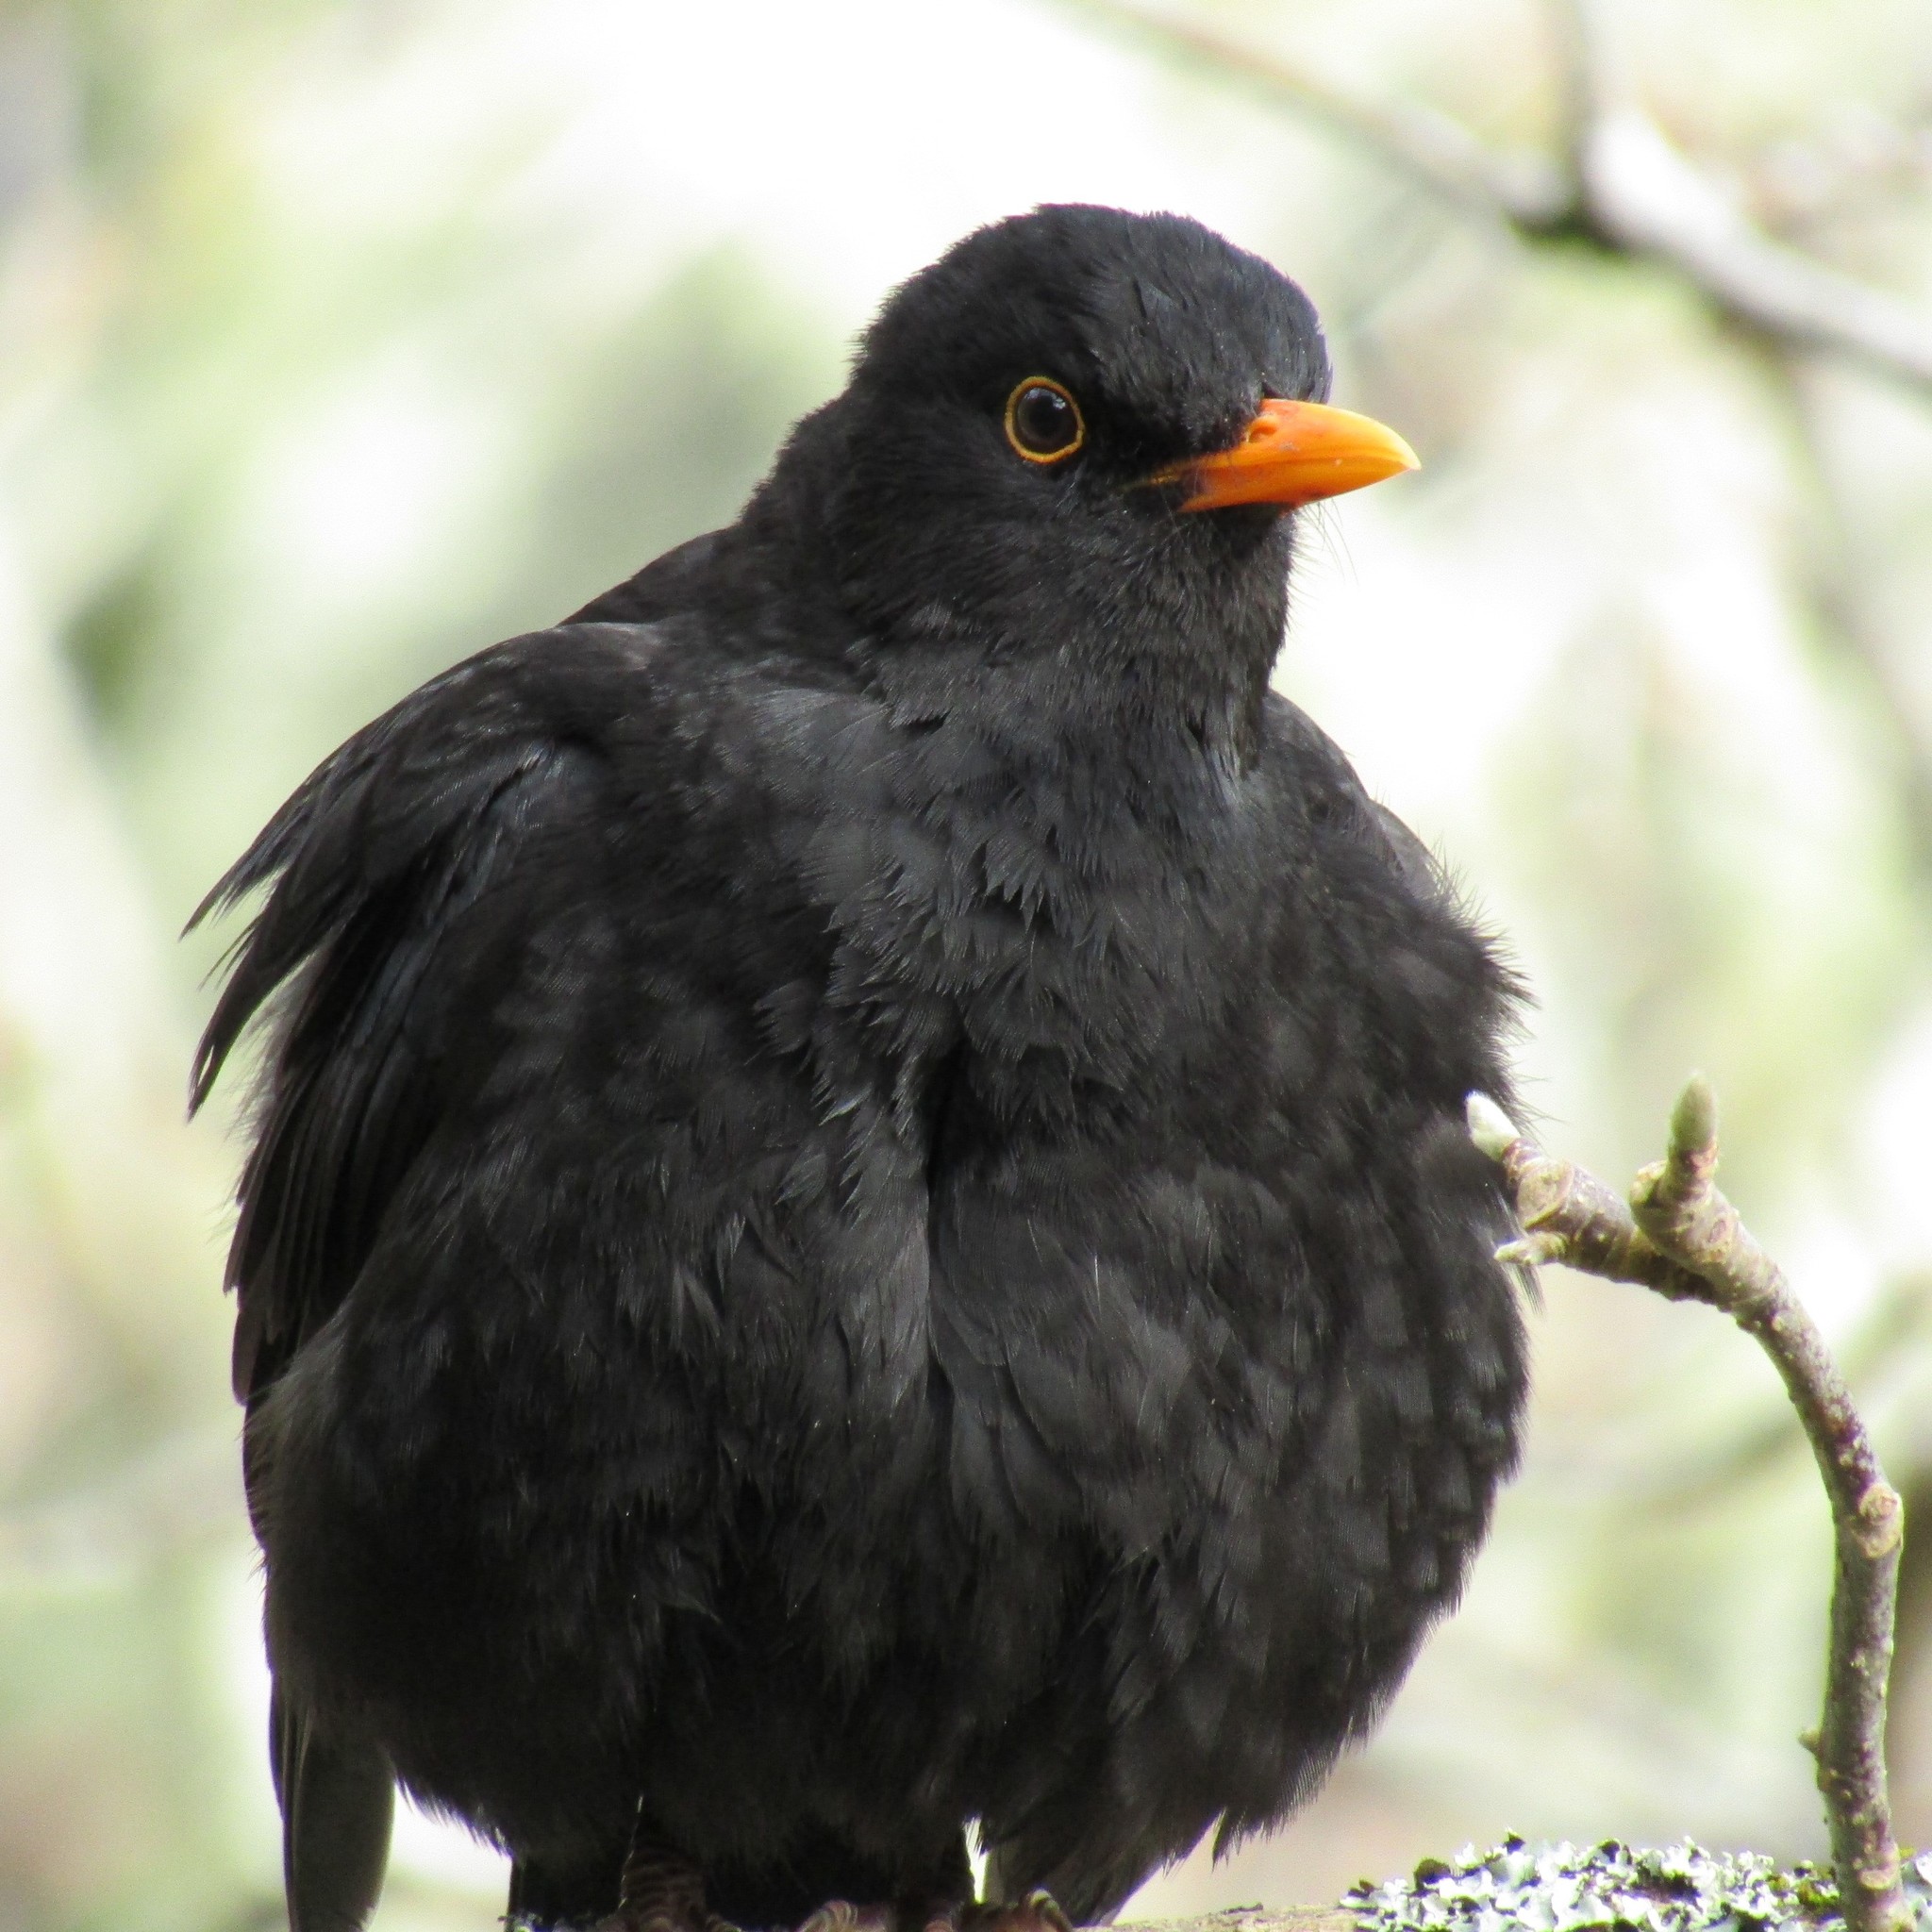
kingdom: Animalia
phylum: Chordata
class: Aves
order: Passeriformes
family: Turdidae
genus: Turdus
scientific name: Turdus merula
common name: Common blackbird
